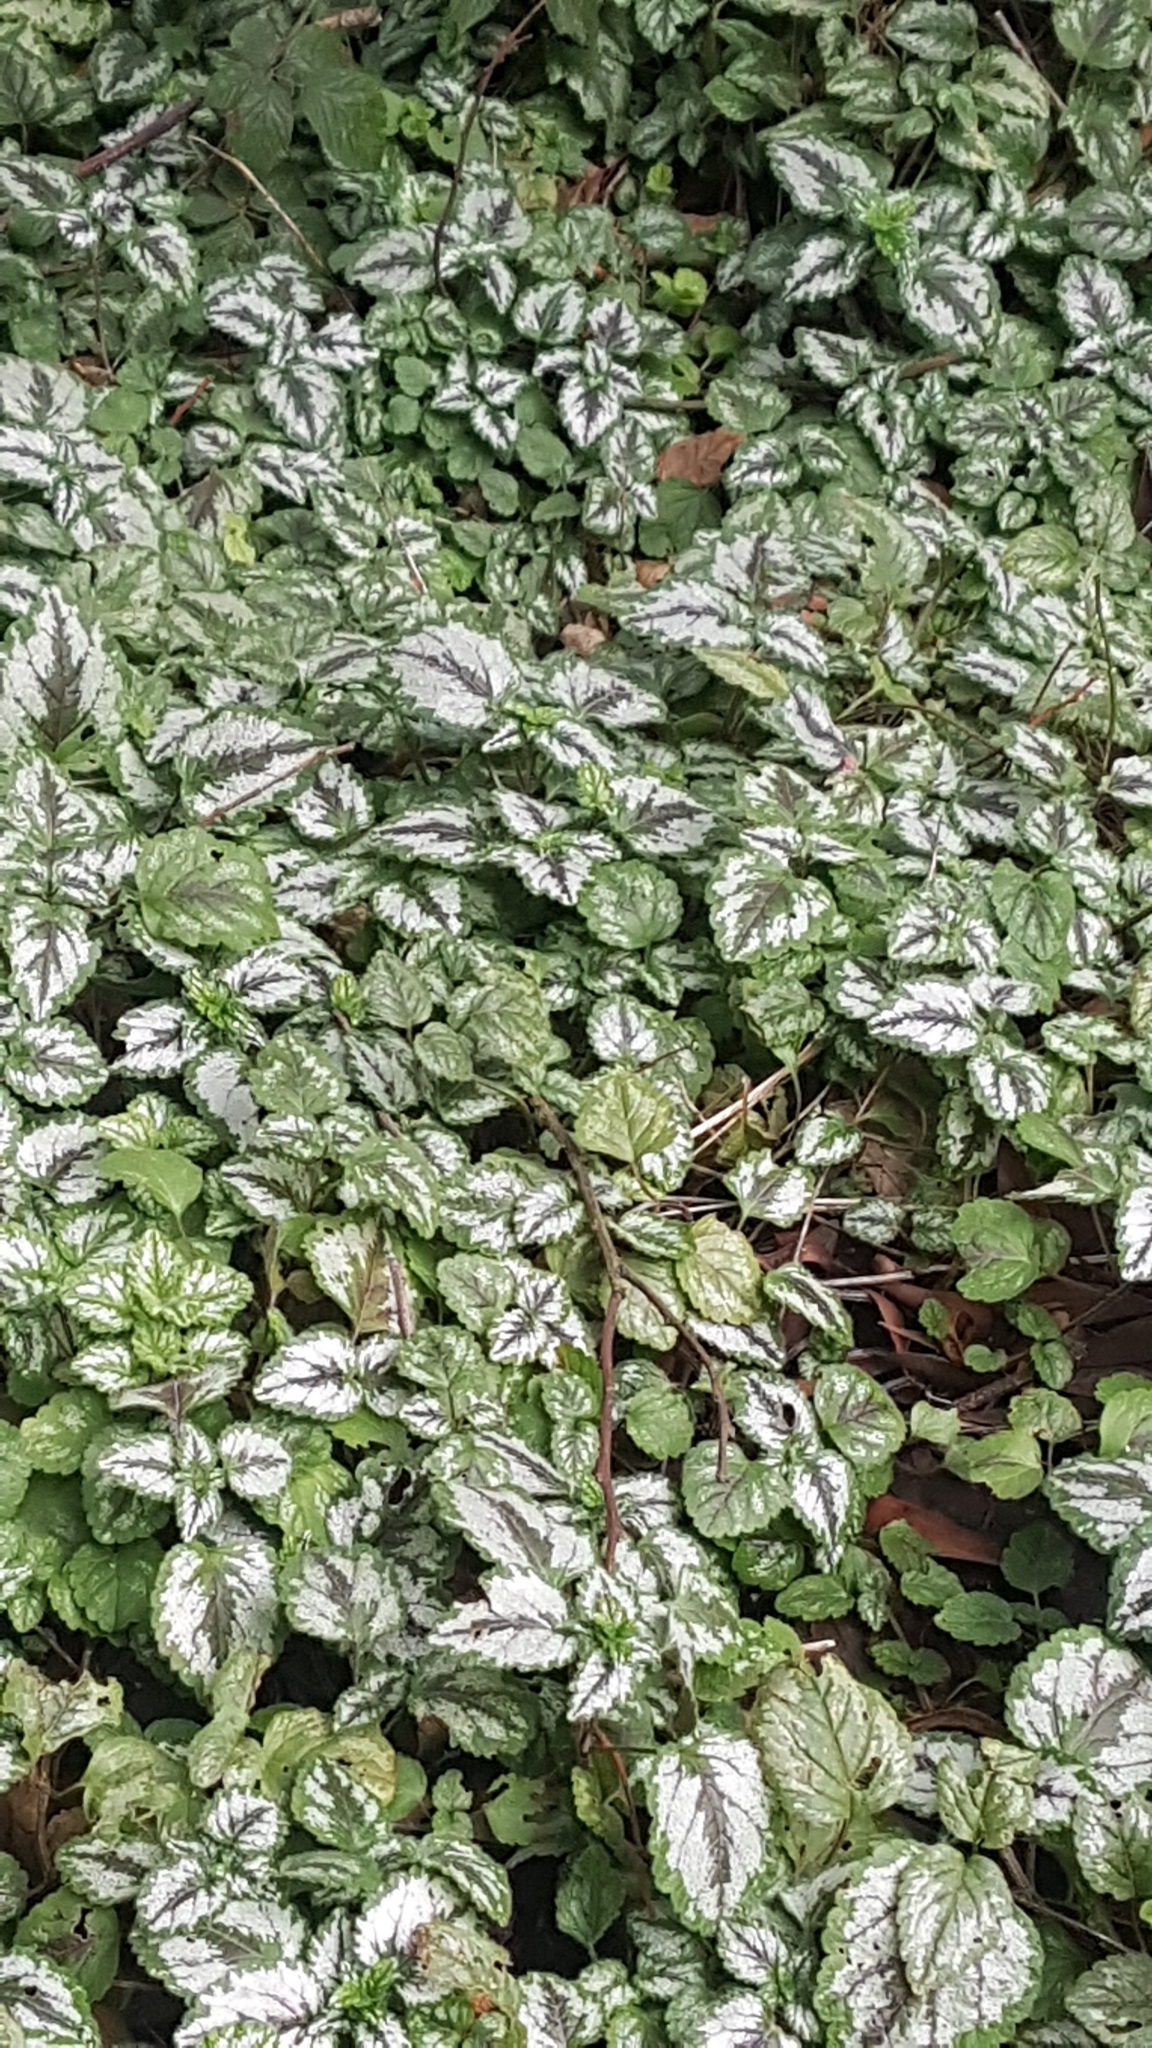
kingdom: Plantae
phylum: Tracheophyta
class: Magnoliopsida
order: Lamiales
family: Lamiaceae
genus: Lamium
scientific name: Lamium galeobdolon
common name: Yellow archangel
